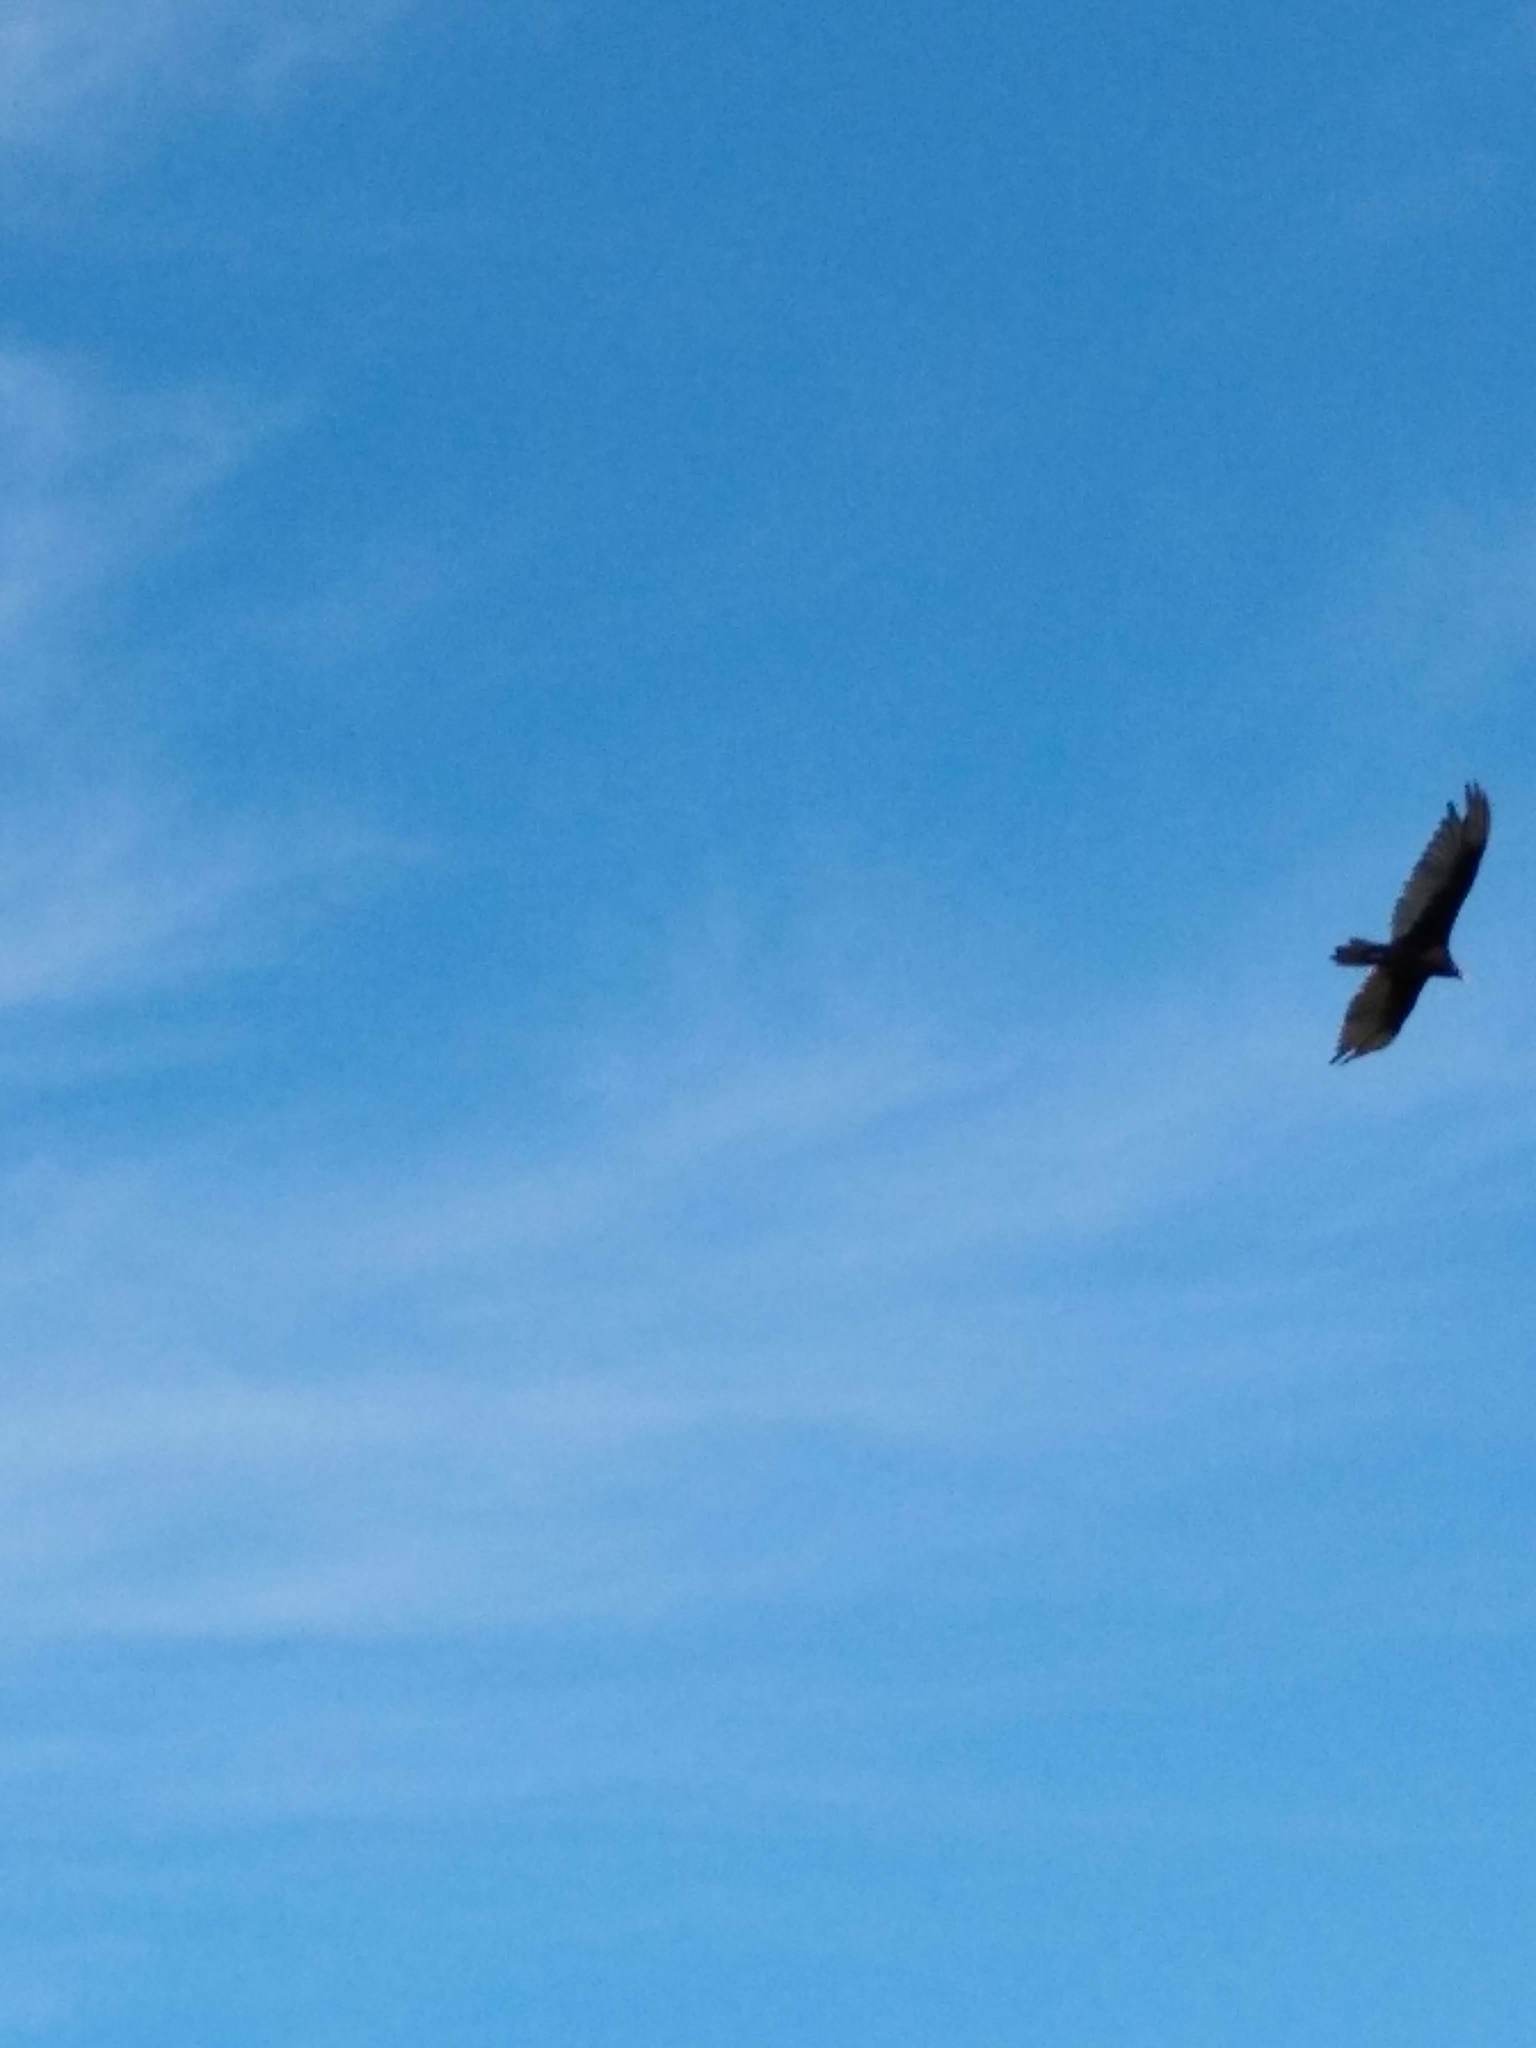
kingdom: Animalia
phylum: Chordata
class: Aves
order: Accipitriformes
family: Cathartidae
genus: Cathartes
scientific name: Cathartes aura
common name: Turkey vulture
